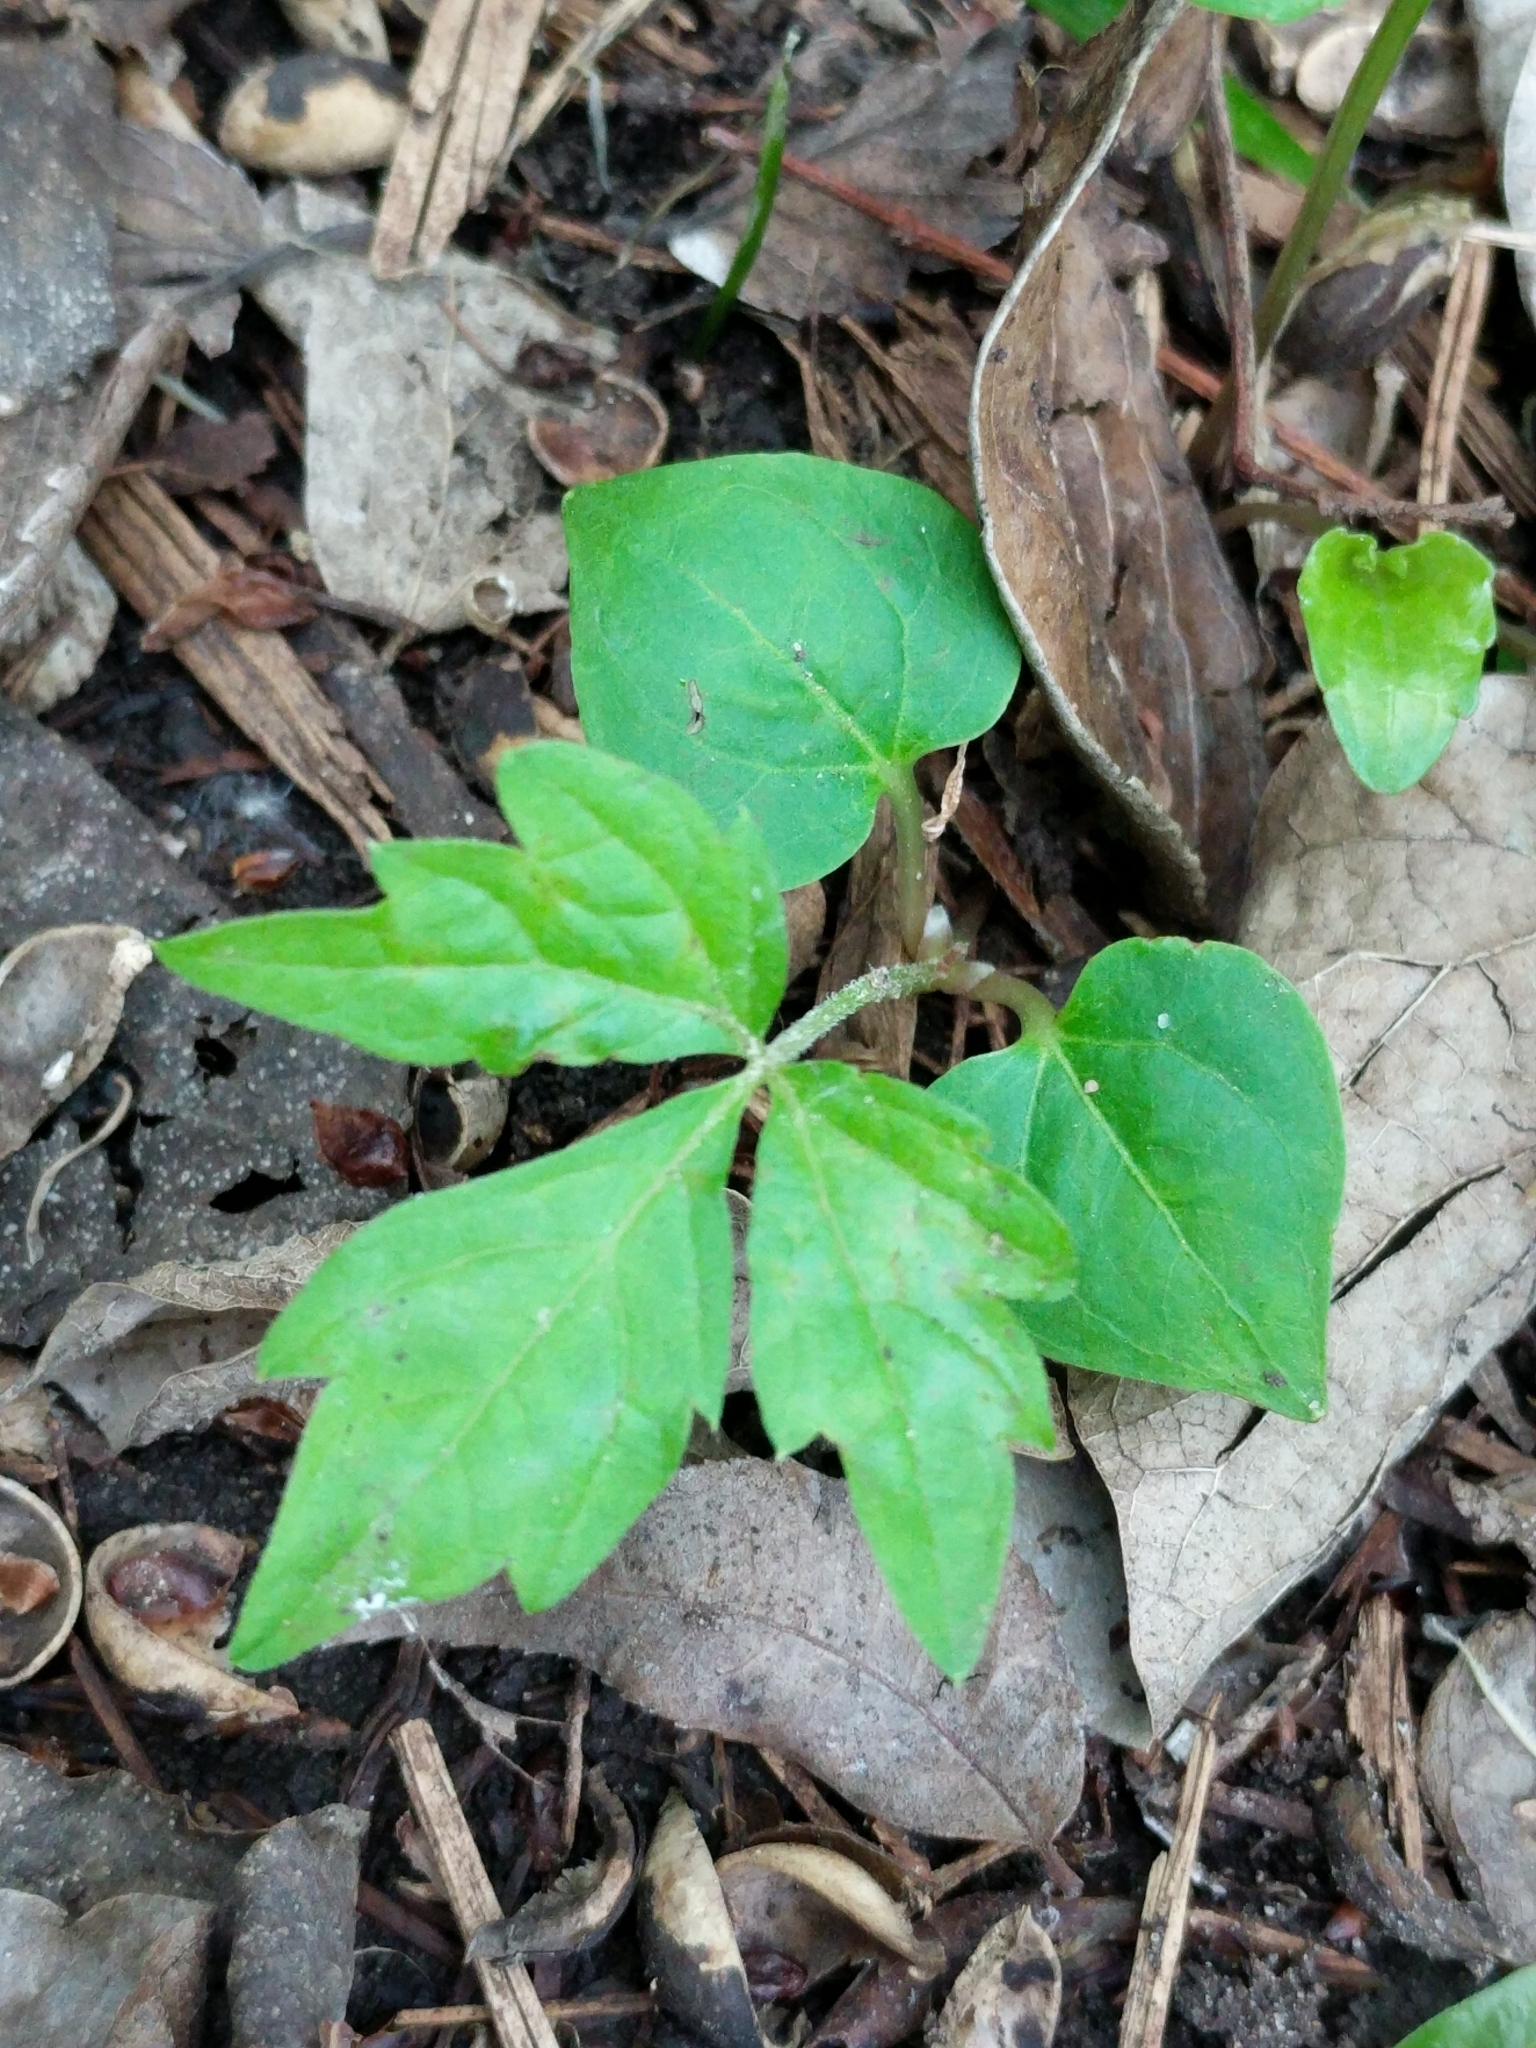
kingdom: Plantae
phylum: Tracheophyta
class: Magnoliopsida
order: Vitales
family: Vitaceae
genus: Parthenocissus
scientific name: Parthenocissus quinquefolia
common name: Virginia-creeper
